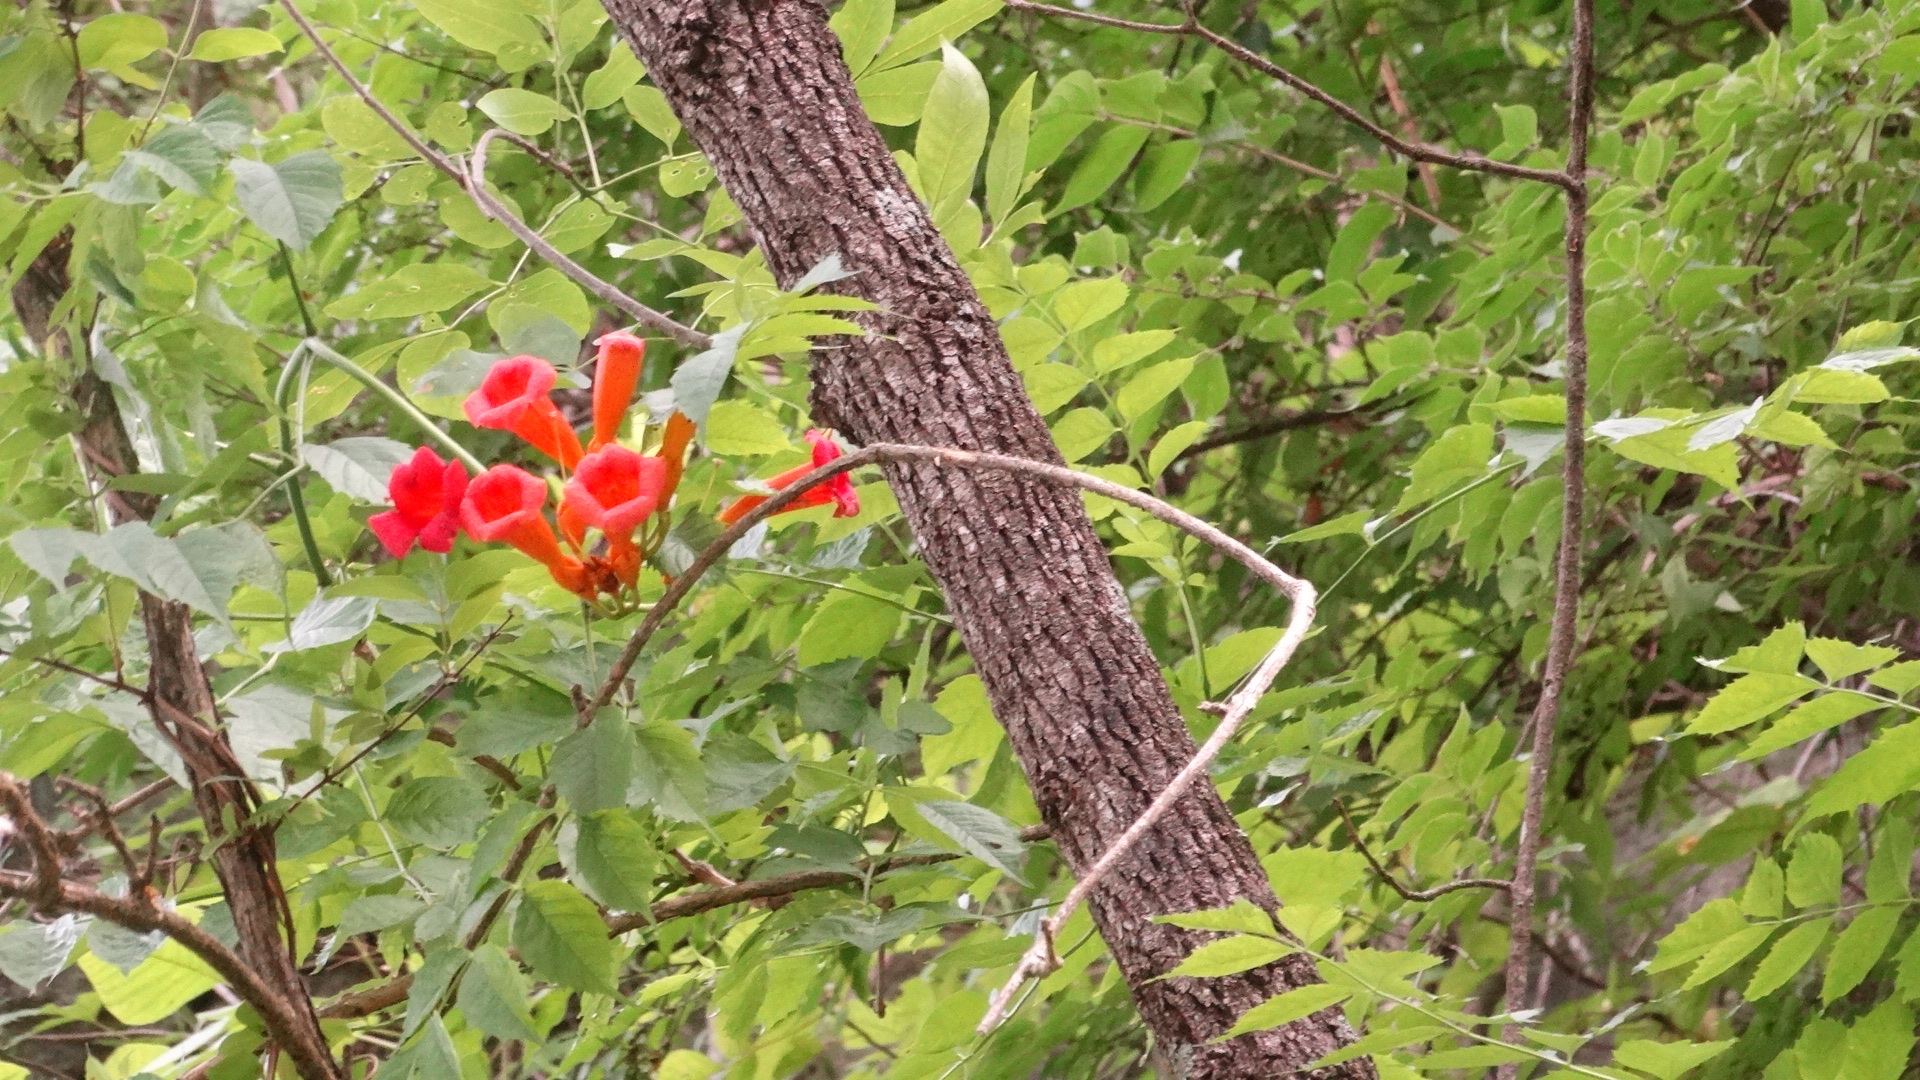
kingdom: Plantae
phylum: Tracheophyta
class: Magnoliopsida
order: Lamiales
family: Bignoniaceae
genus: Campsis
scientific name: Campsis radicans
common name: Trumpet-creeper
